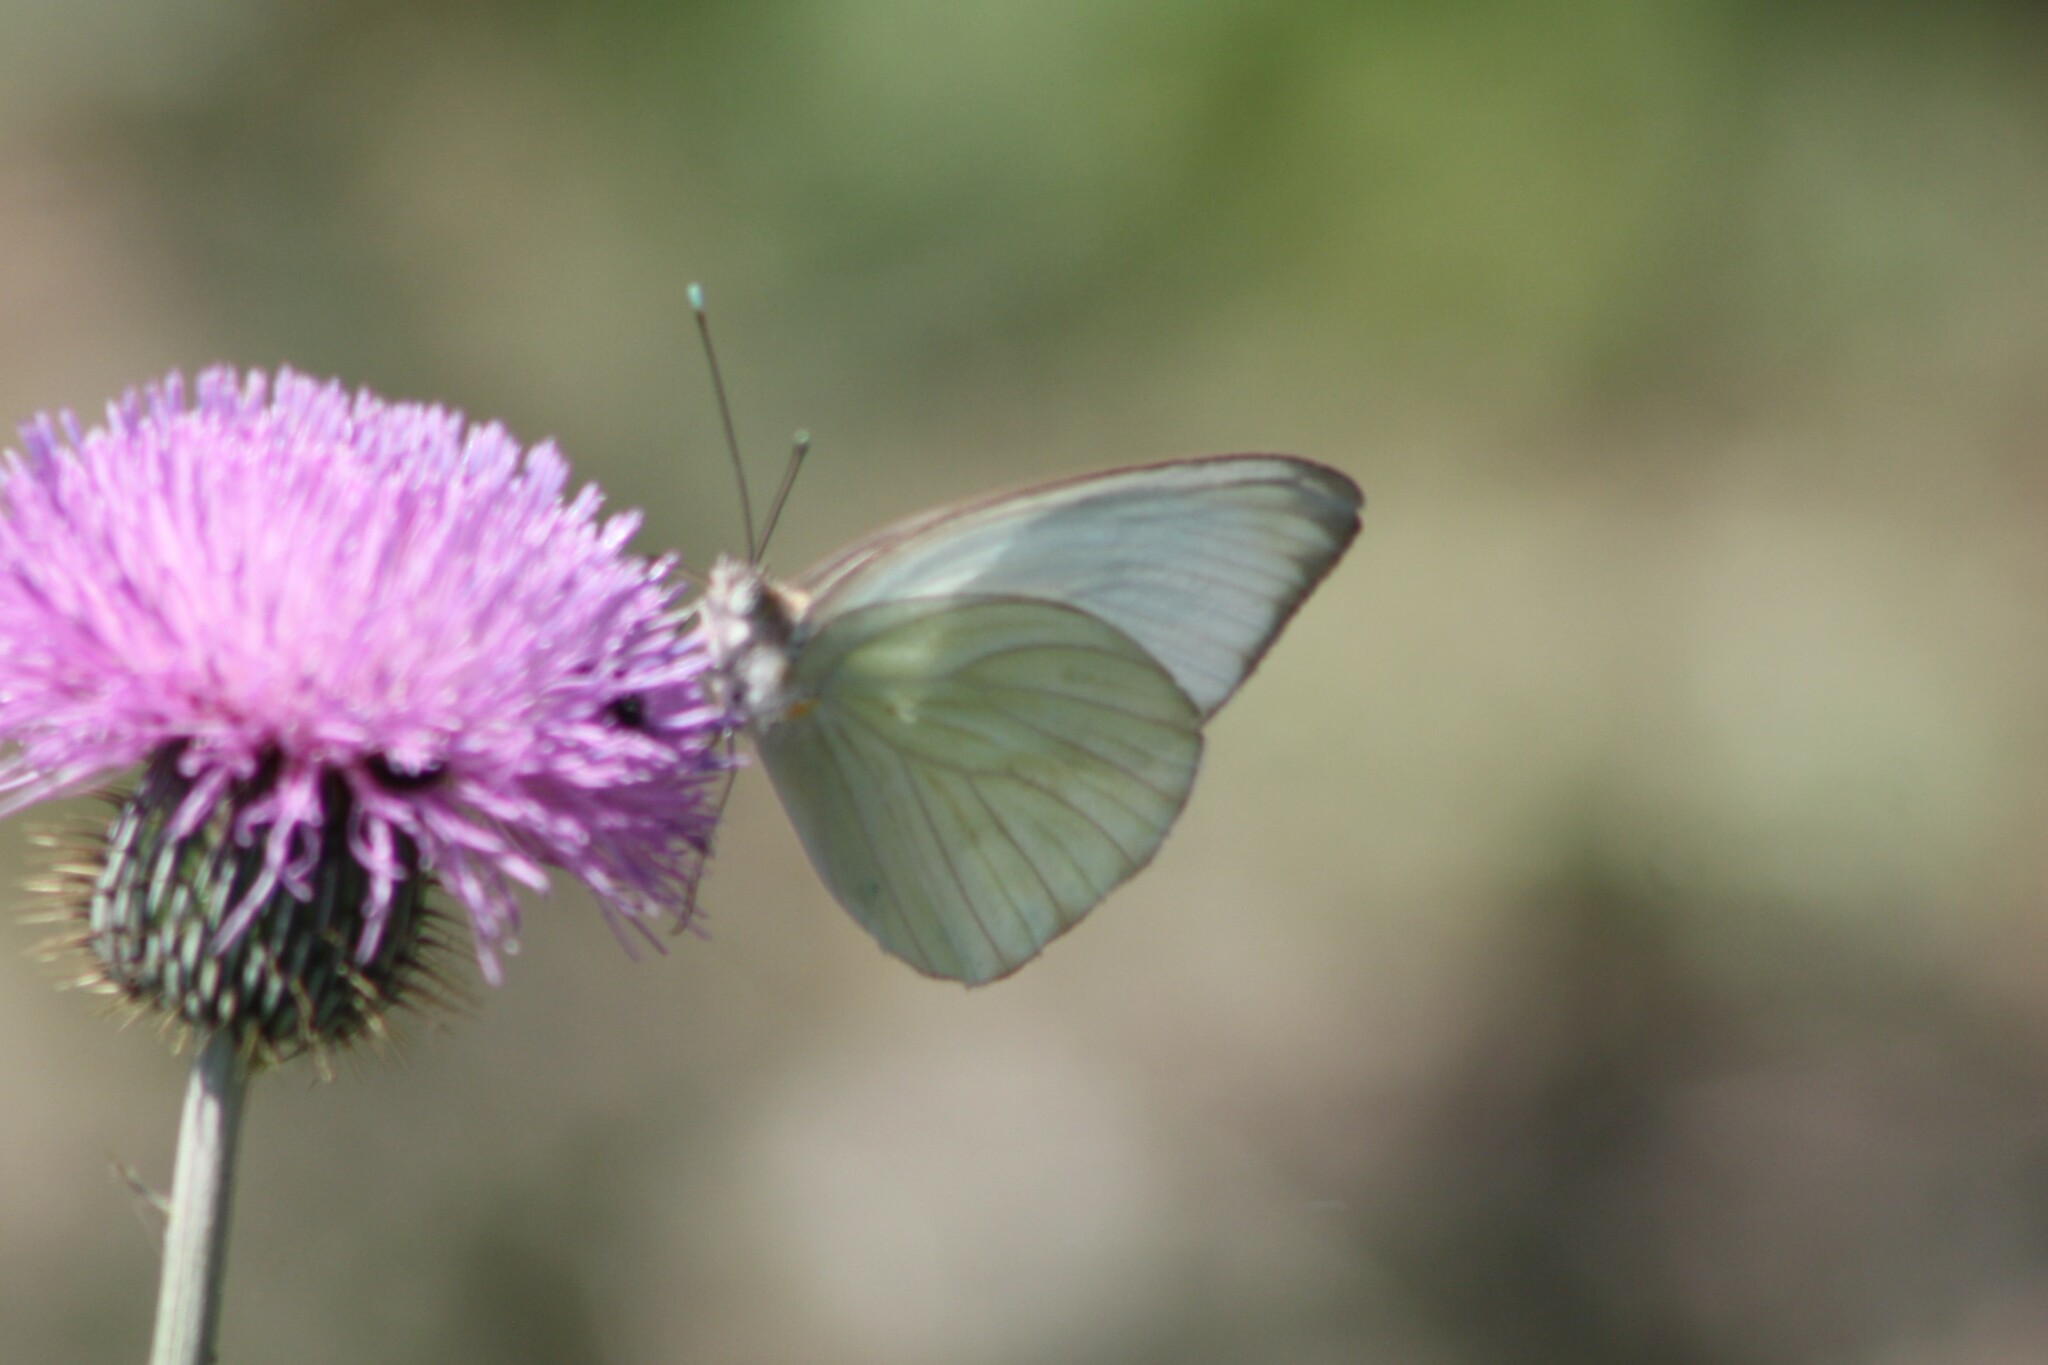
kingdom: Animalia
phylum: Arthropoda
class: Insecta
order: Lepidoptera
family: Pieridae
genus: Ascia
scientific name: Ascia monuste
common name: Great southern white
